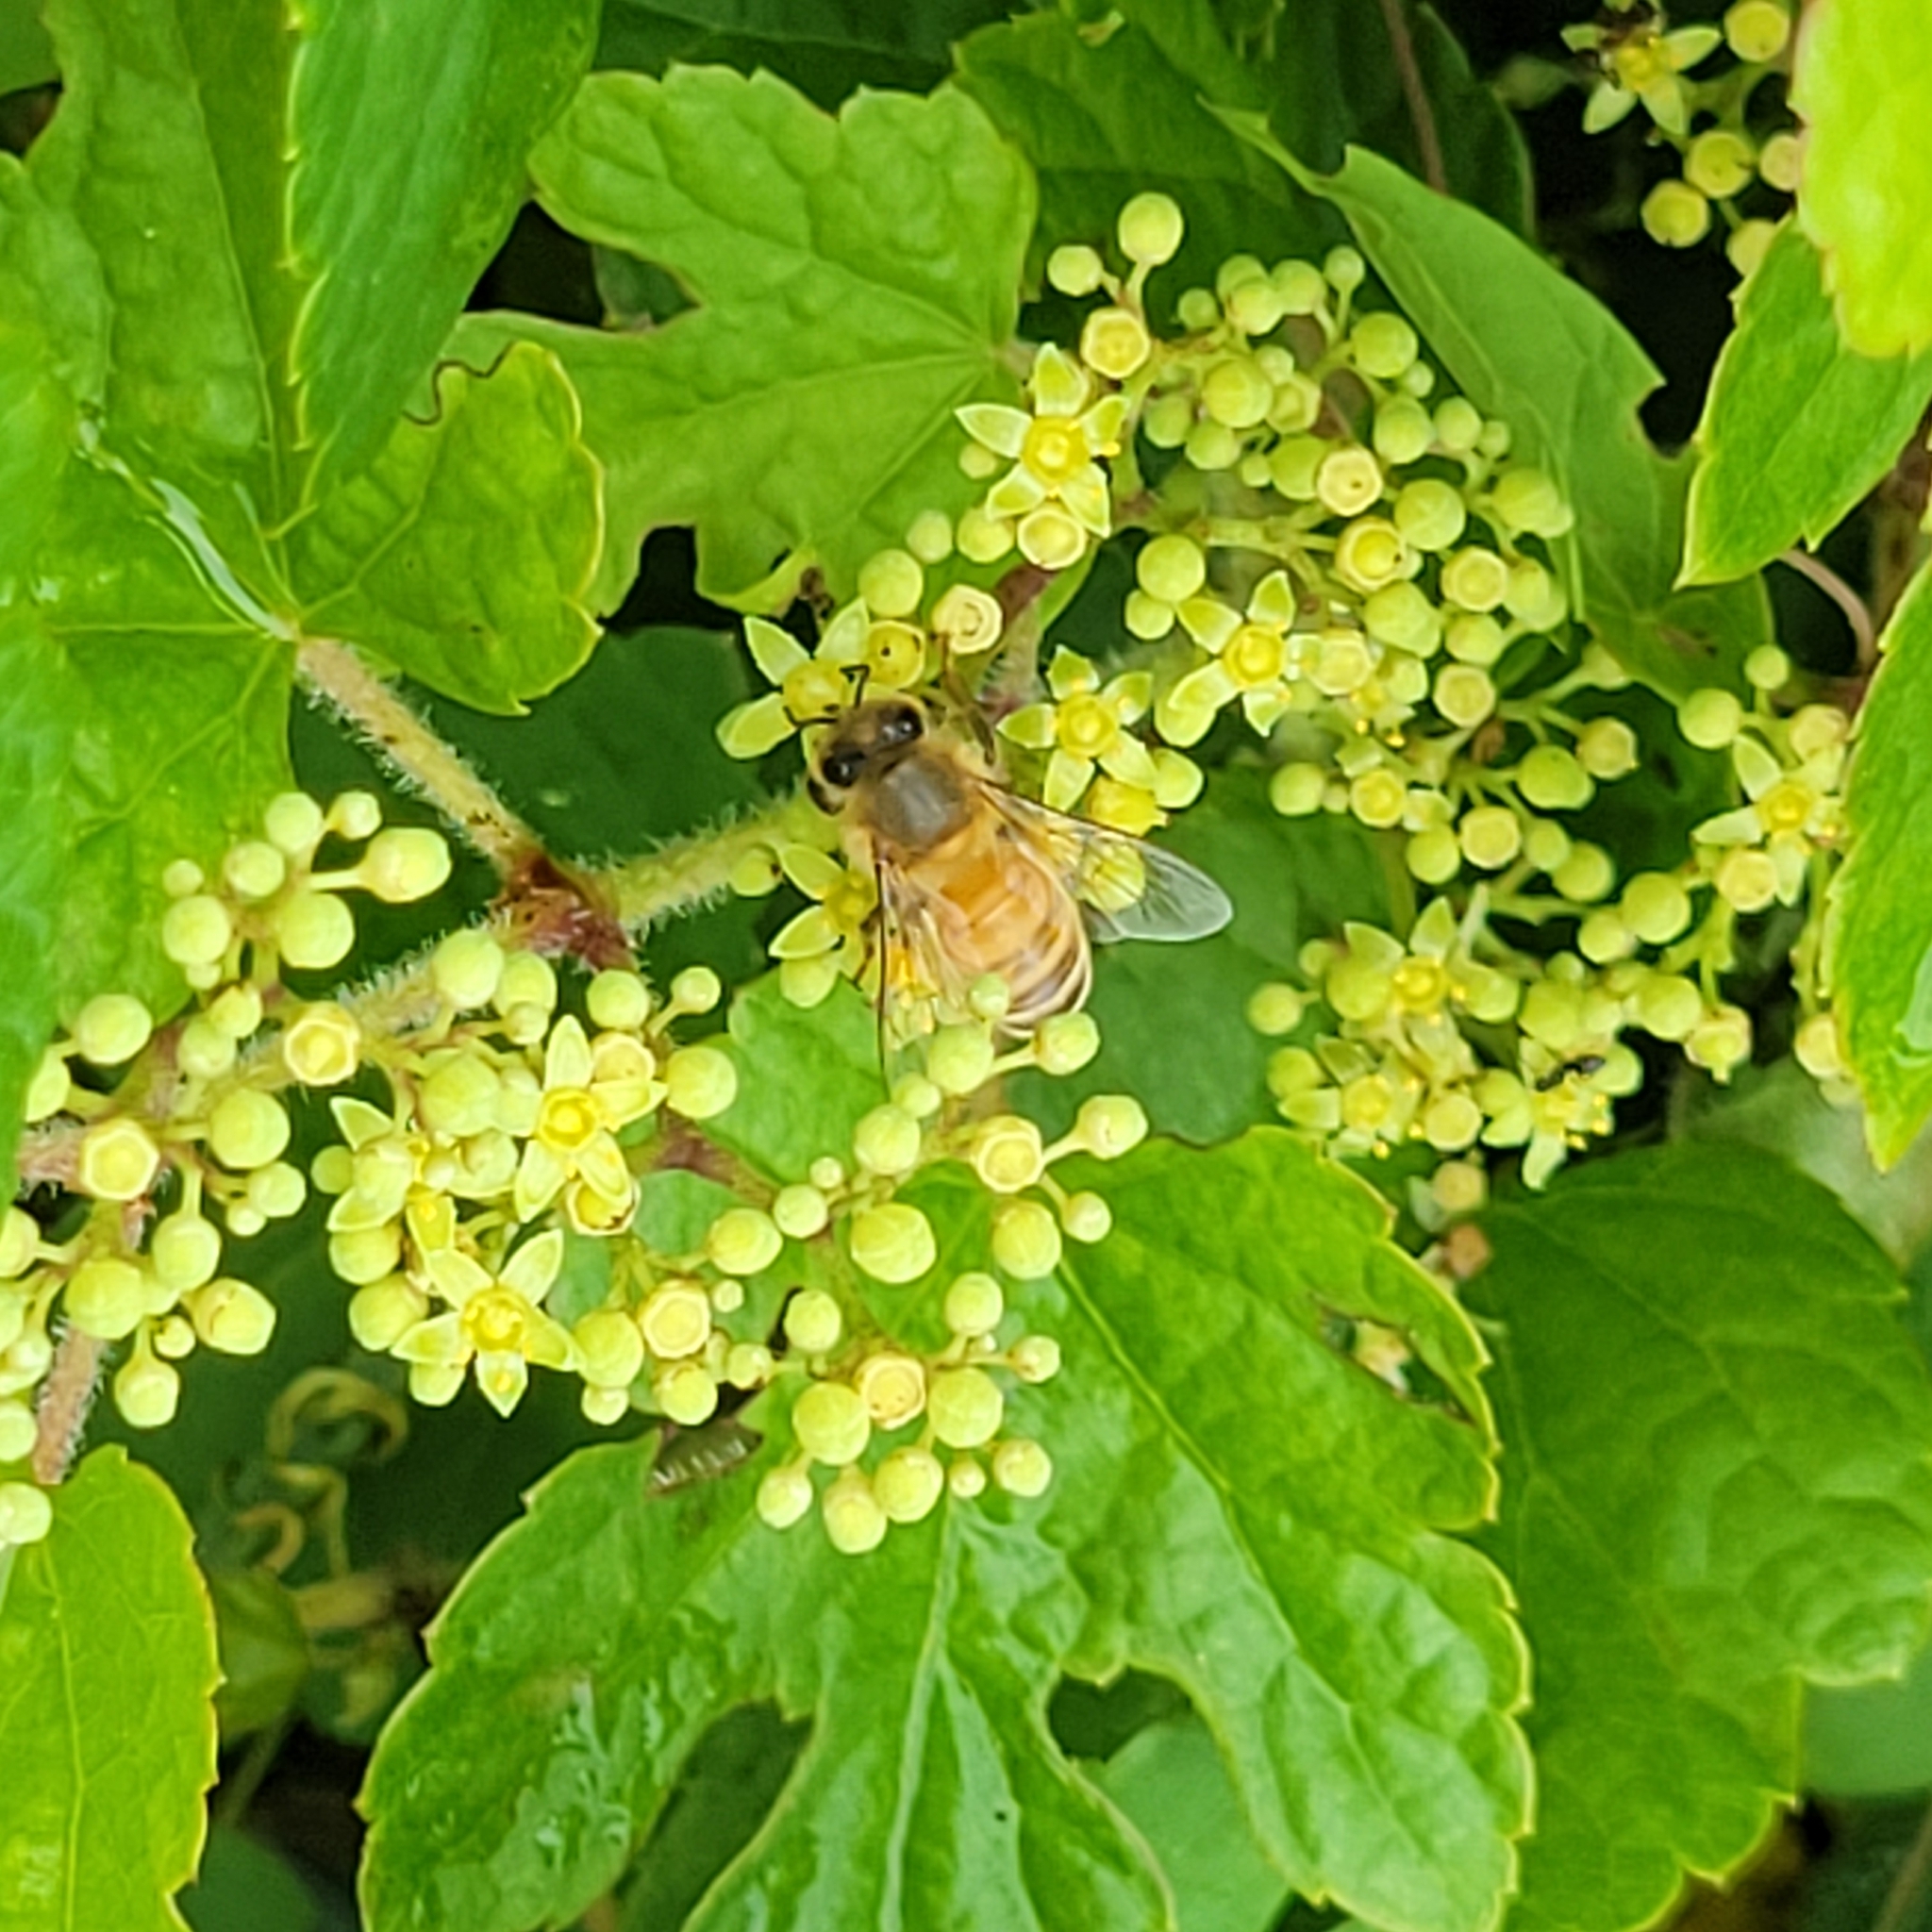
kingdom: Animalia
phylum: Arthropoda
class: Insecta
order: Hymenoptera
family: Apidae
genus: Apis
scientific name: Apis mellifera
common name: Honey bee
